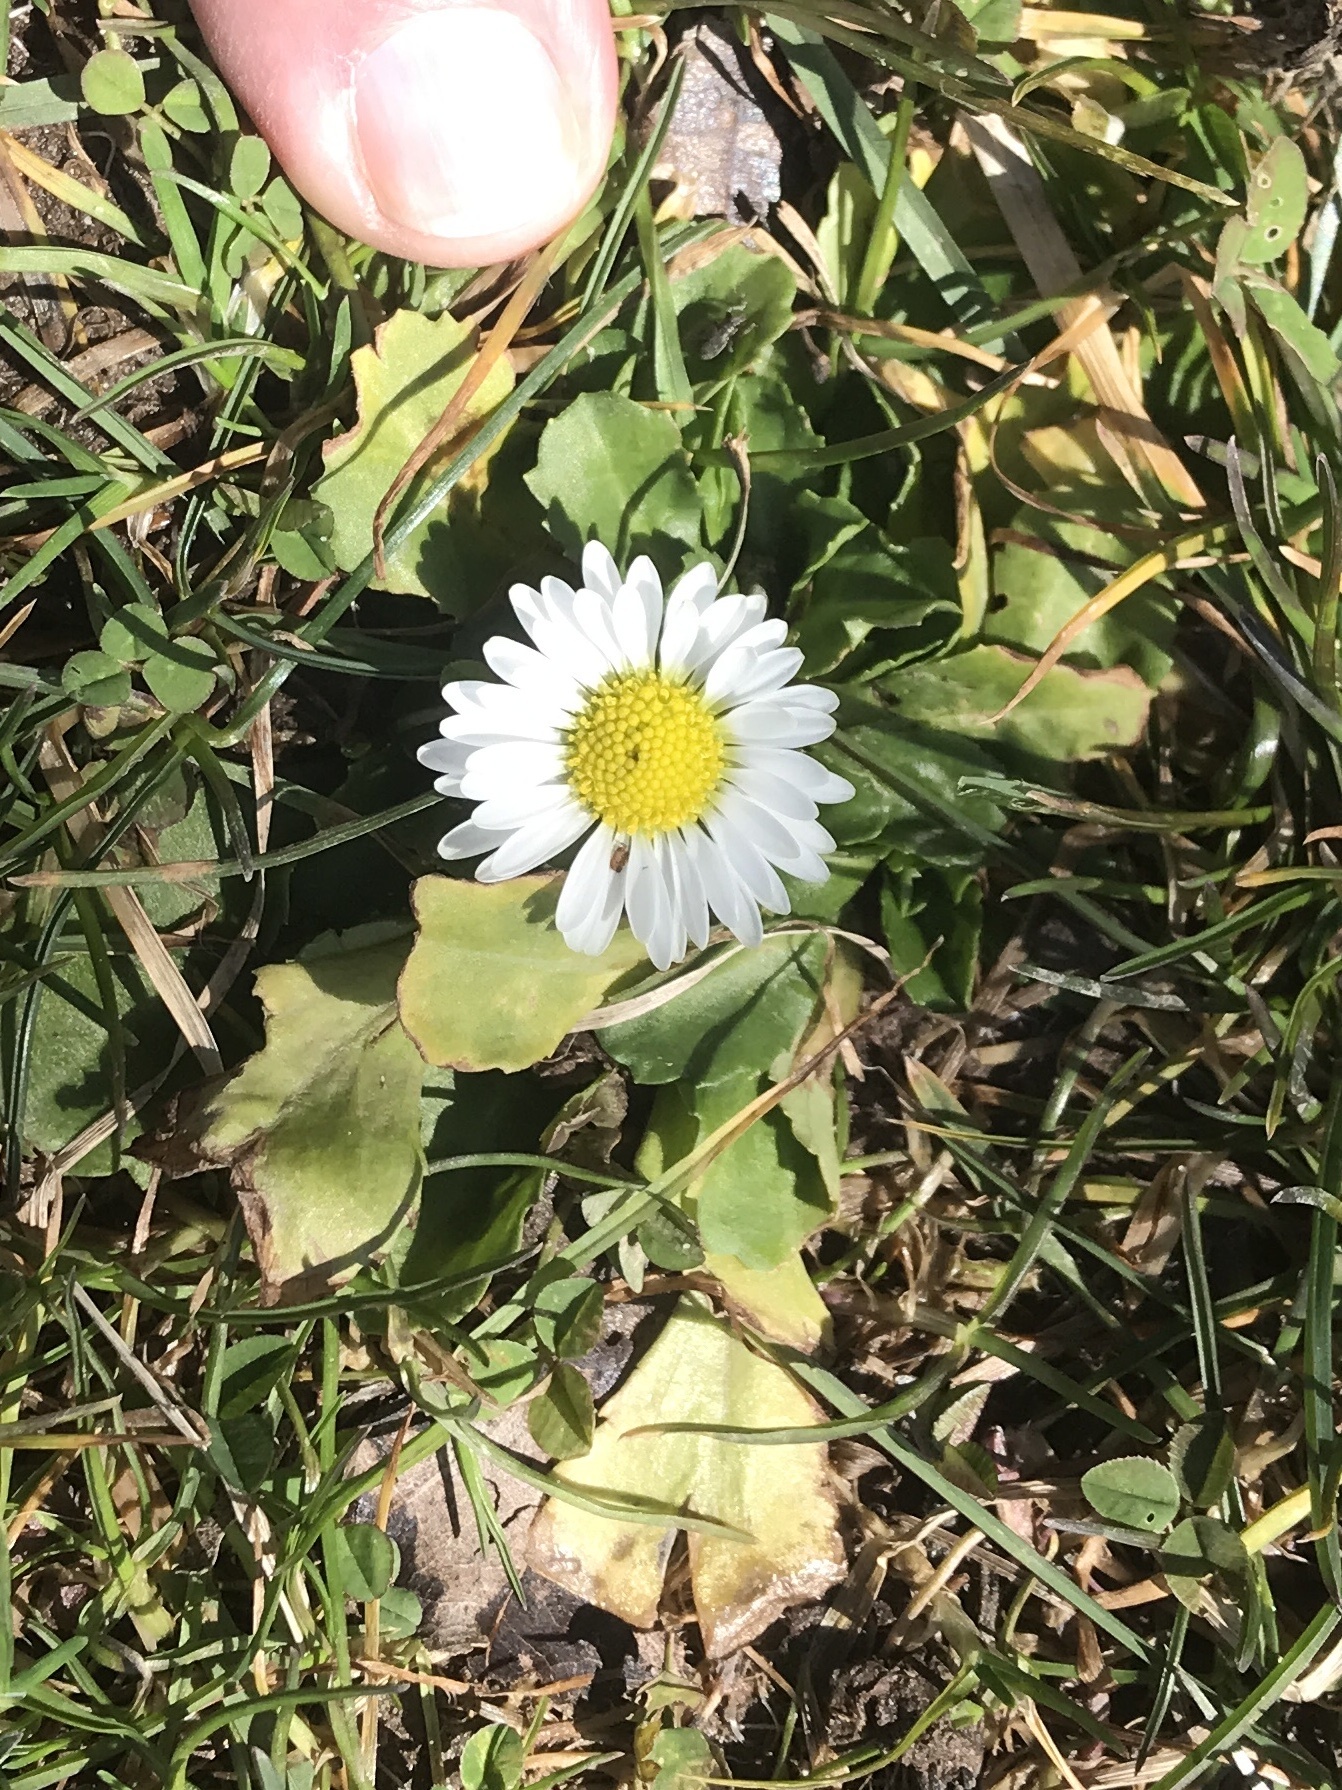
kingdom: Plantae
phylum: Tracheophyta
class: Magnoliopsida
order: Asterales
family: Asteraceae
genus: Bellis
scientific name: Bellis perennis
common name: Lawndaisy
